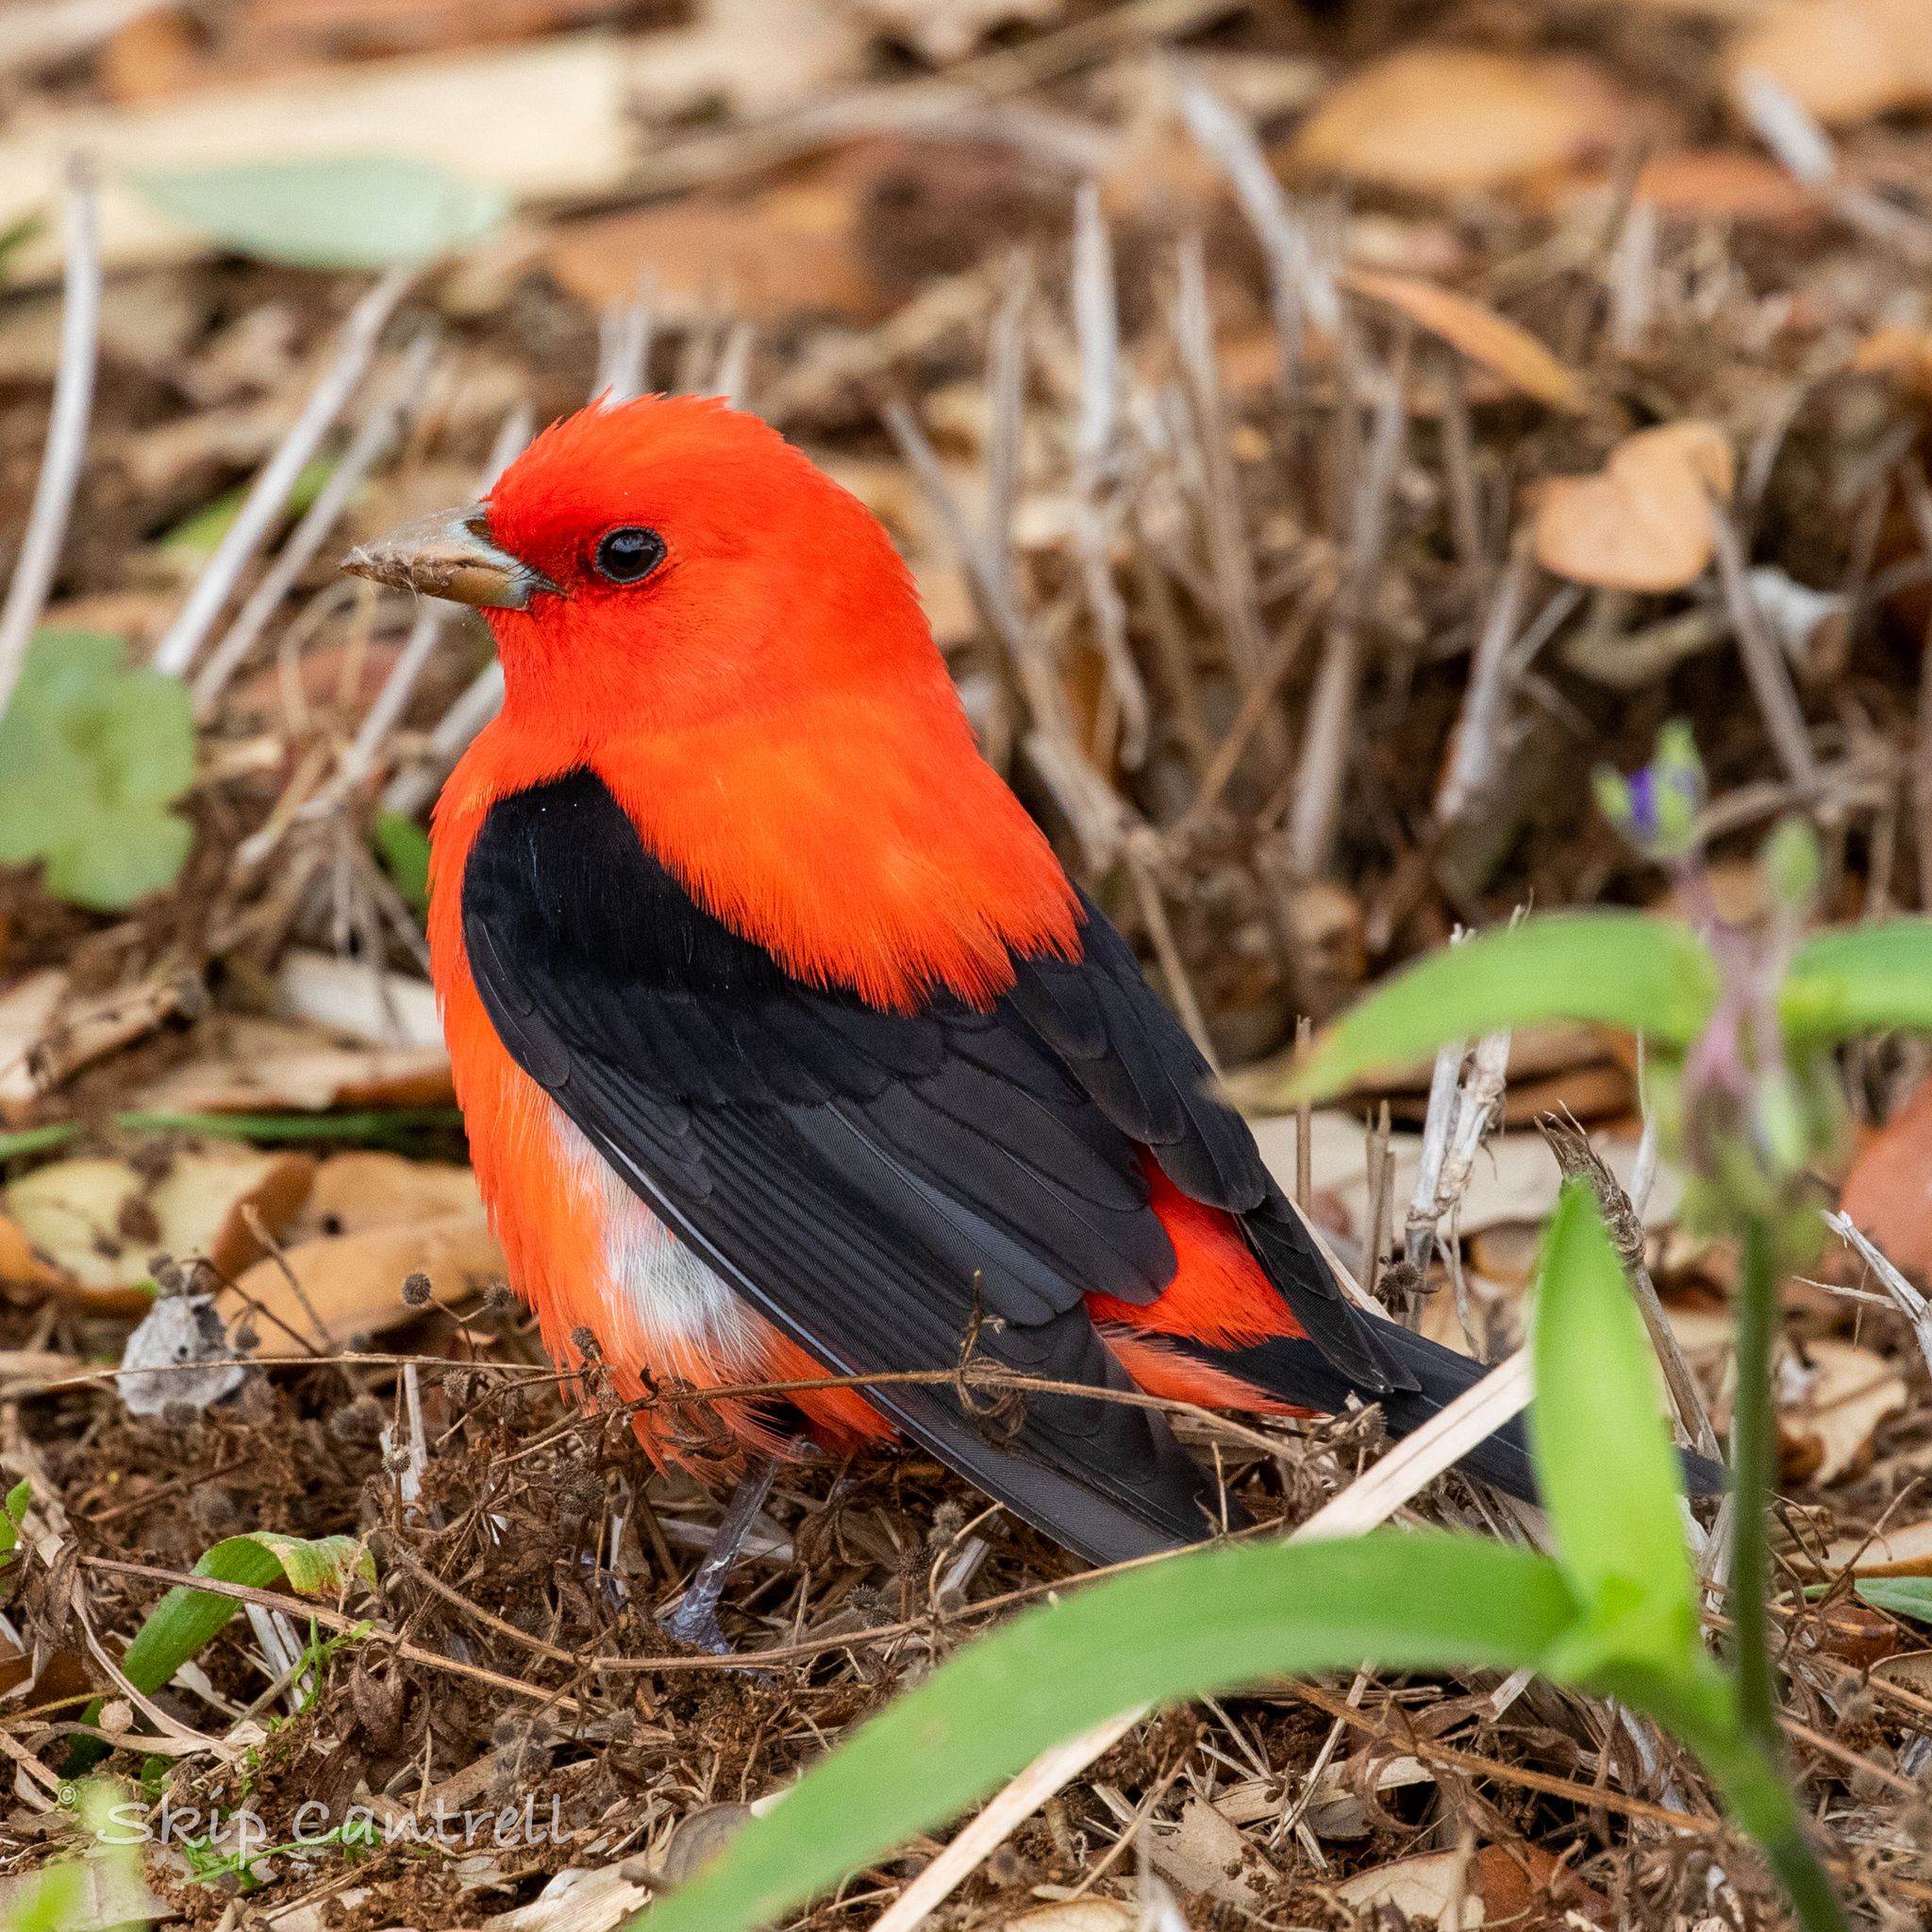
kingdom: Animalia
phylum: Chordata
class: Aves
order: Passeriformes
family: Cardinalidae
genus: Piranga
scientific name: Piranga olivacea
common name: Scarlet tanager
